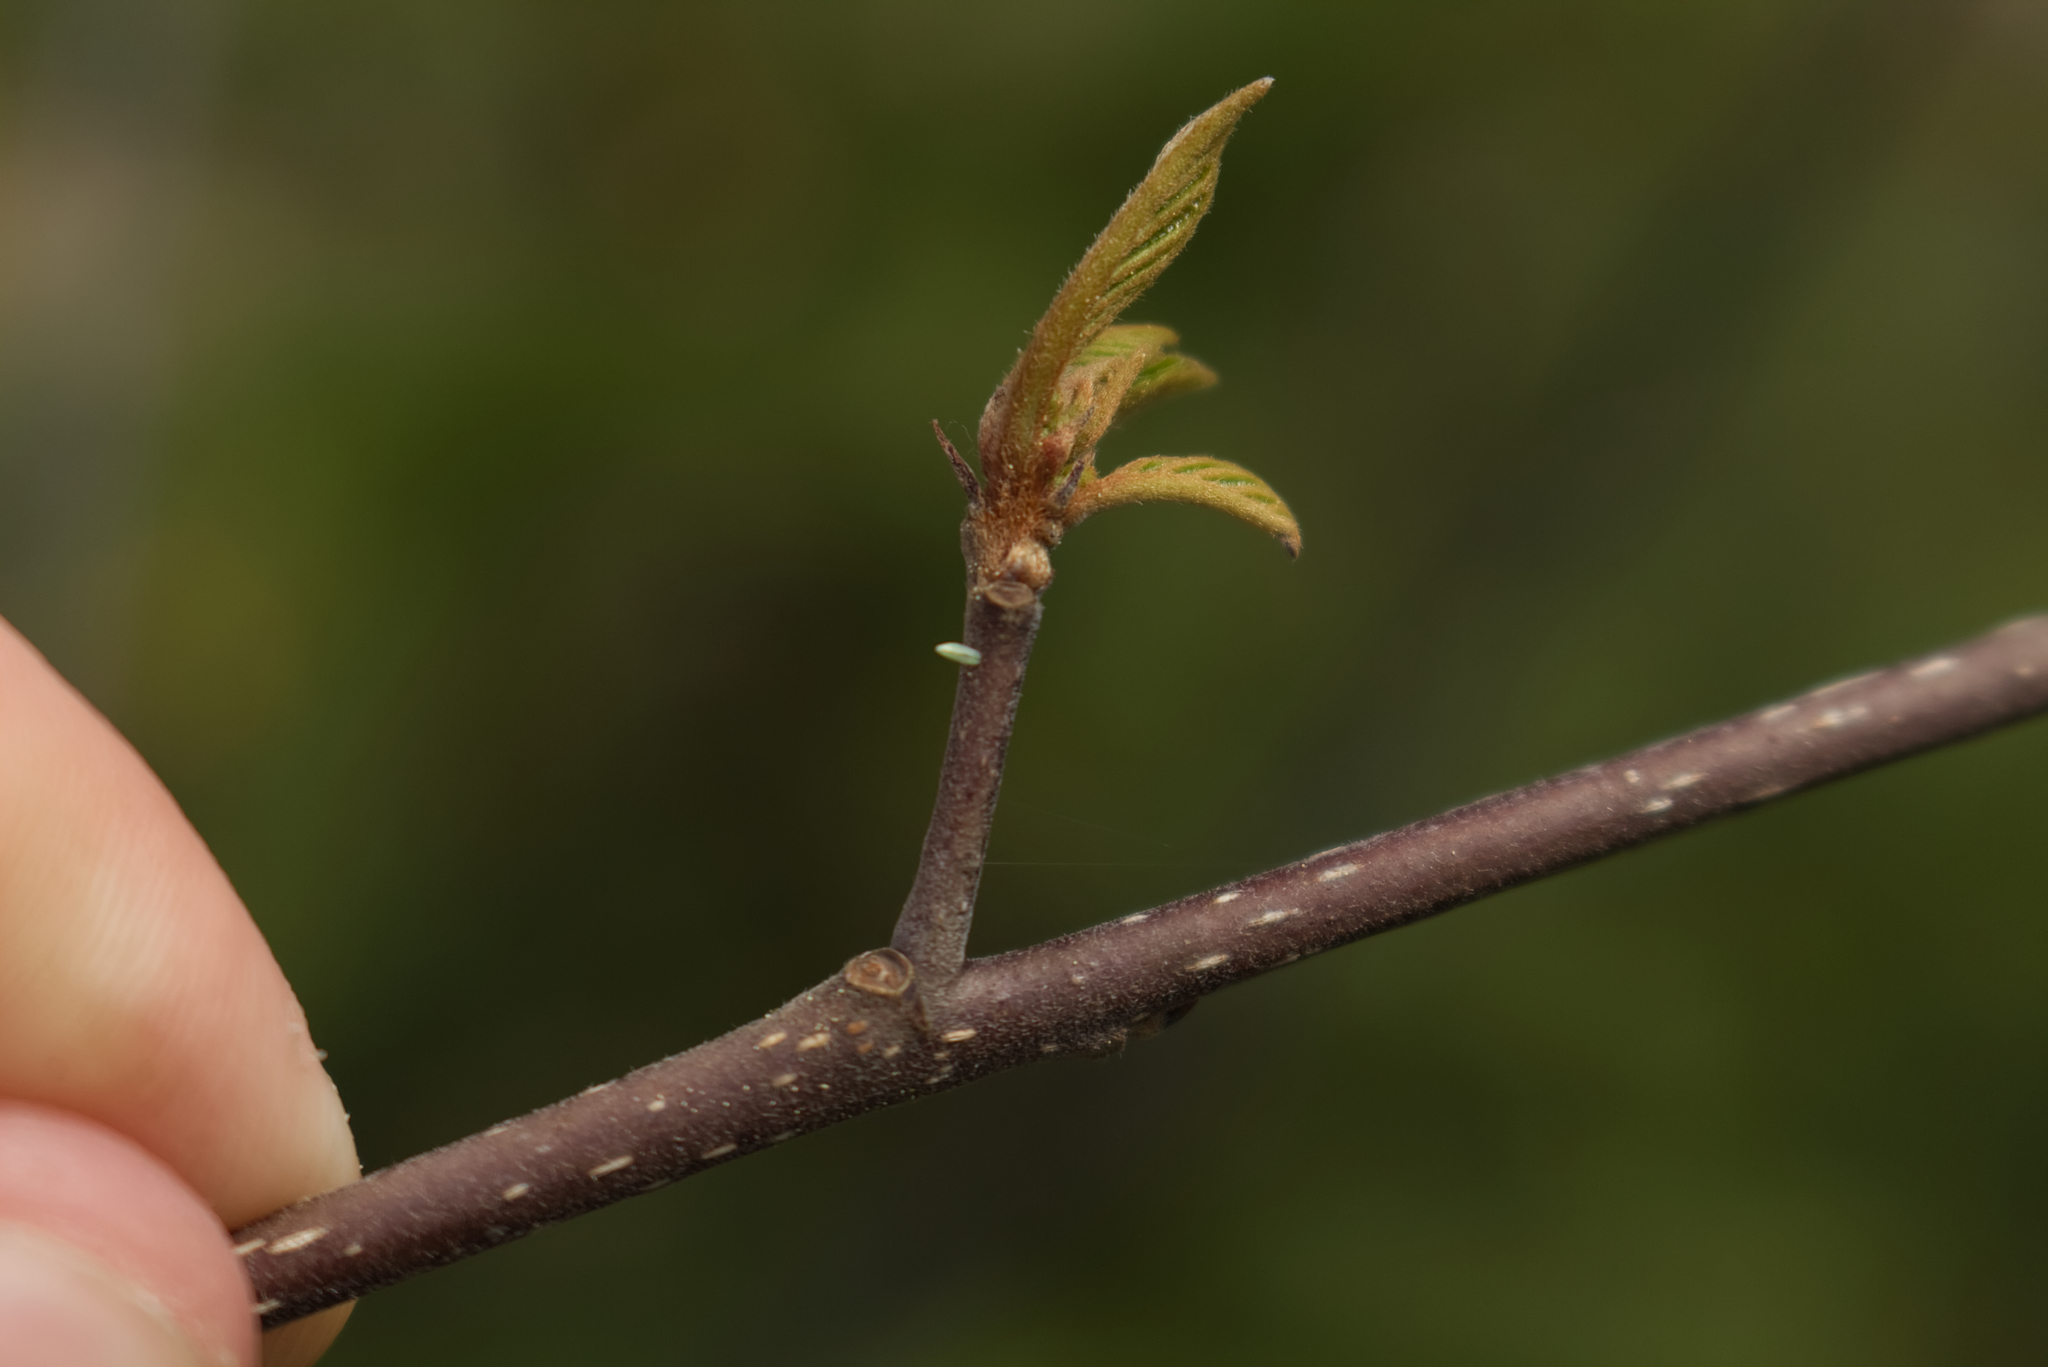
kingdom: Animalia
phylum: Arthropoda
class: Insecta
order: Lepidoptera
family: Pieridae
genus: Gonepteryx
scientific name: Gonepteryx rhamni
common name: Brimstone
